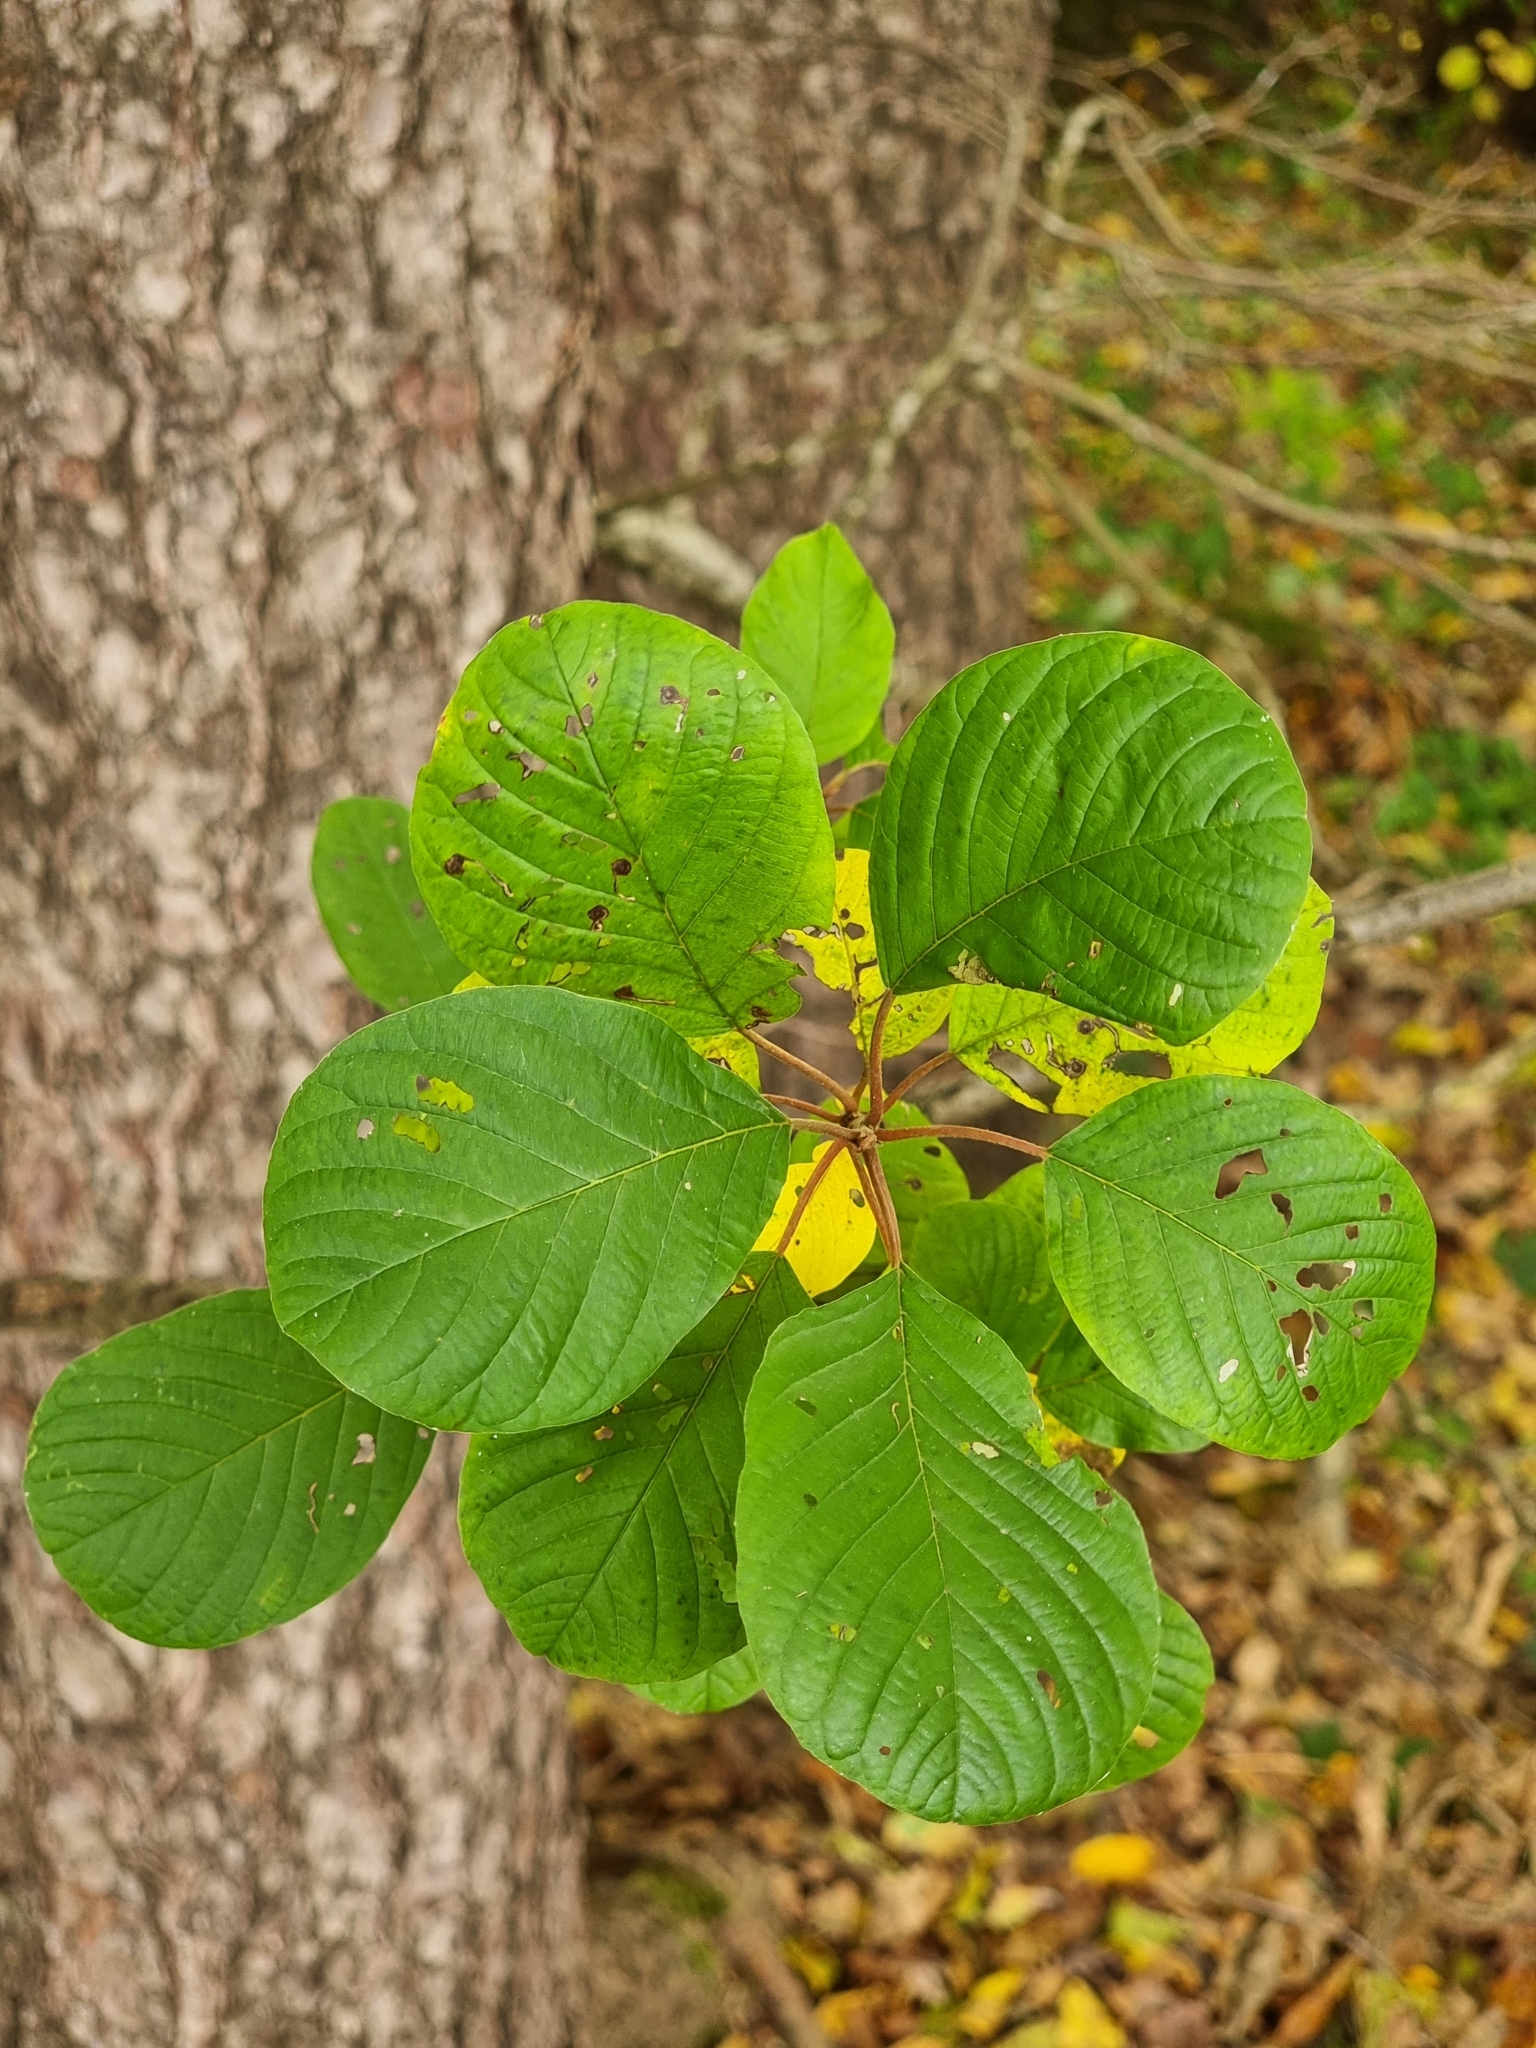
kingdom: Plantae
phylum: Tracheophyta
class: Magnoliopsida
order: Rosales
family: Rhamnaceae
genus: Frangula
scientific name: Frangula alnus
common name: Alder buckthorn
